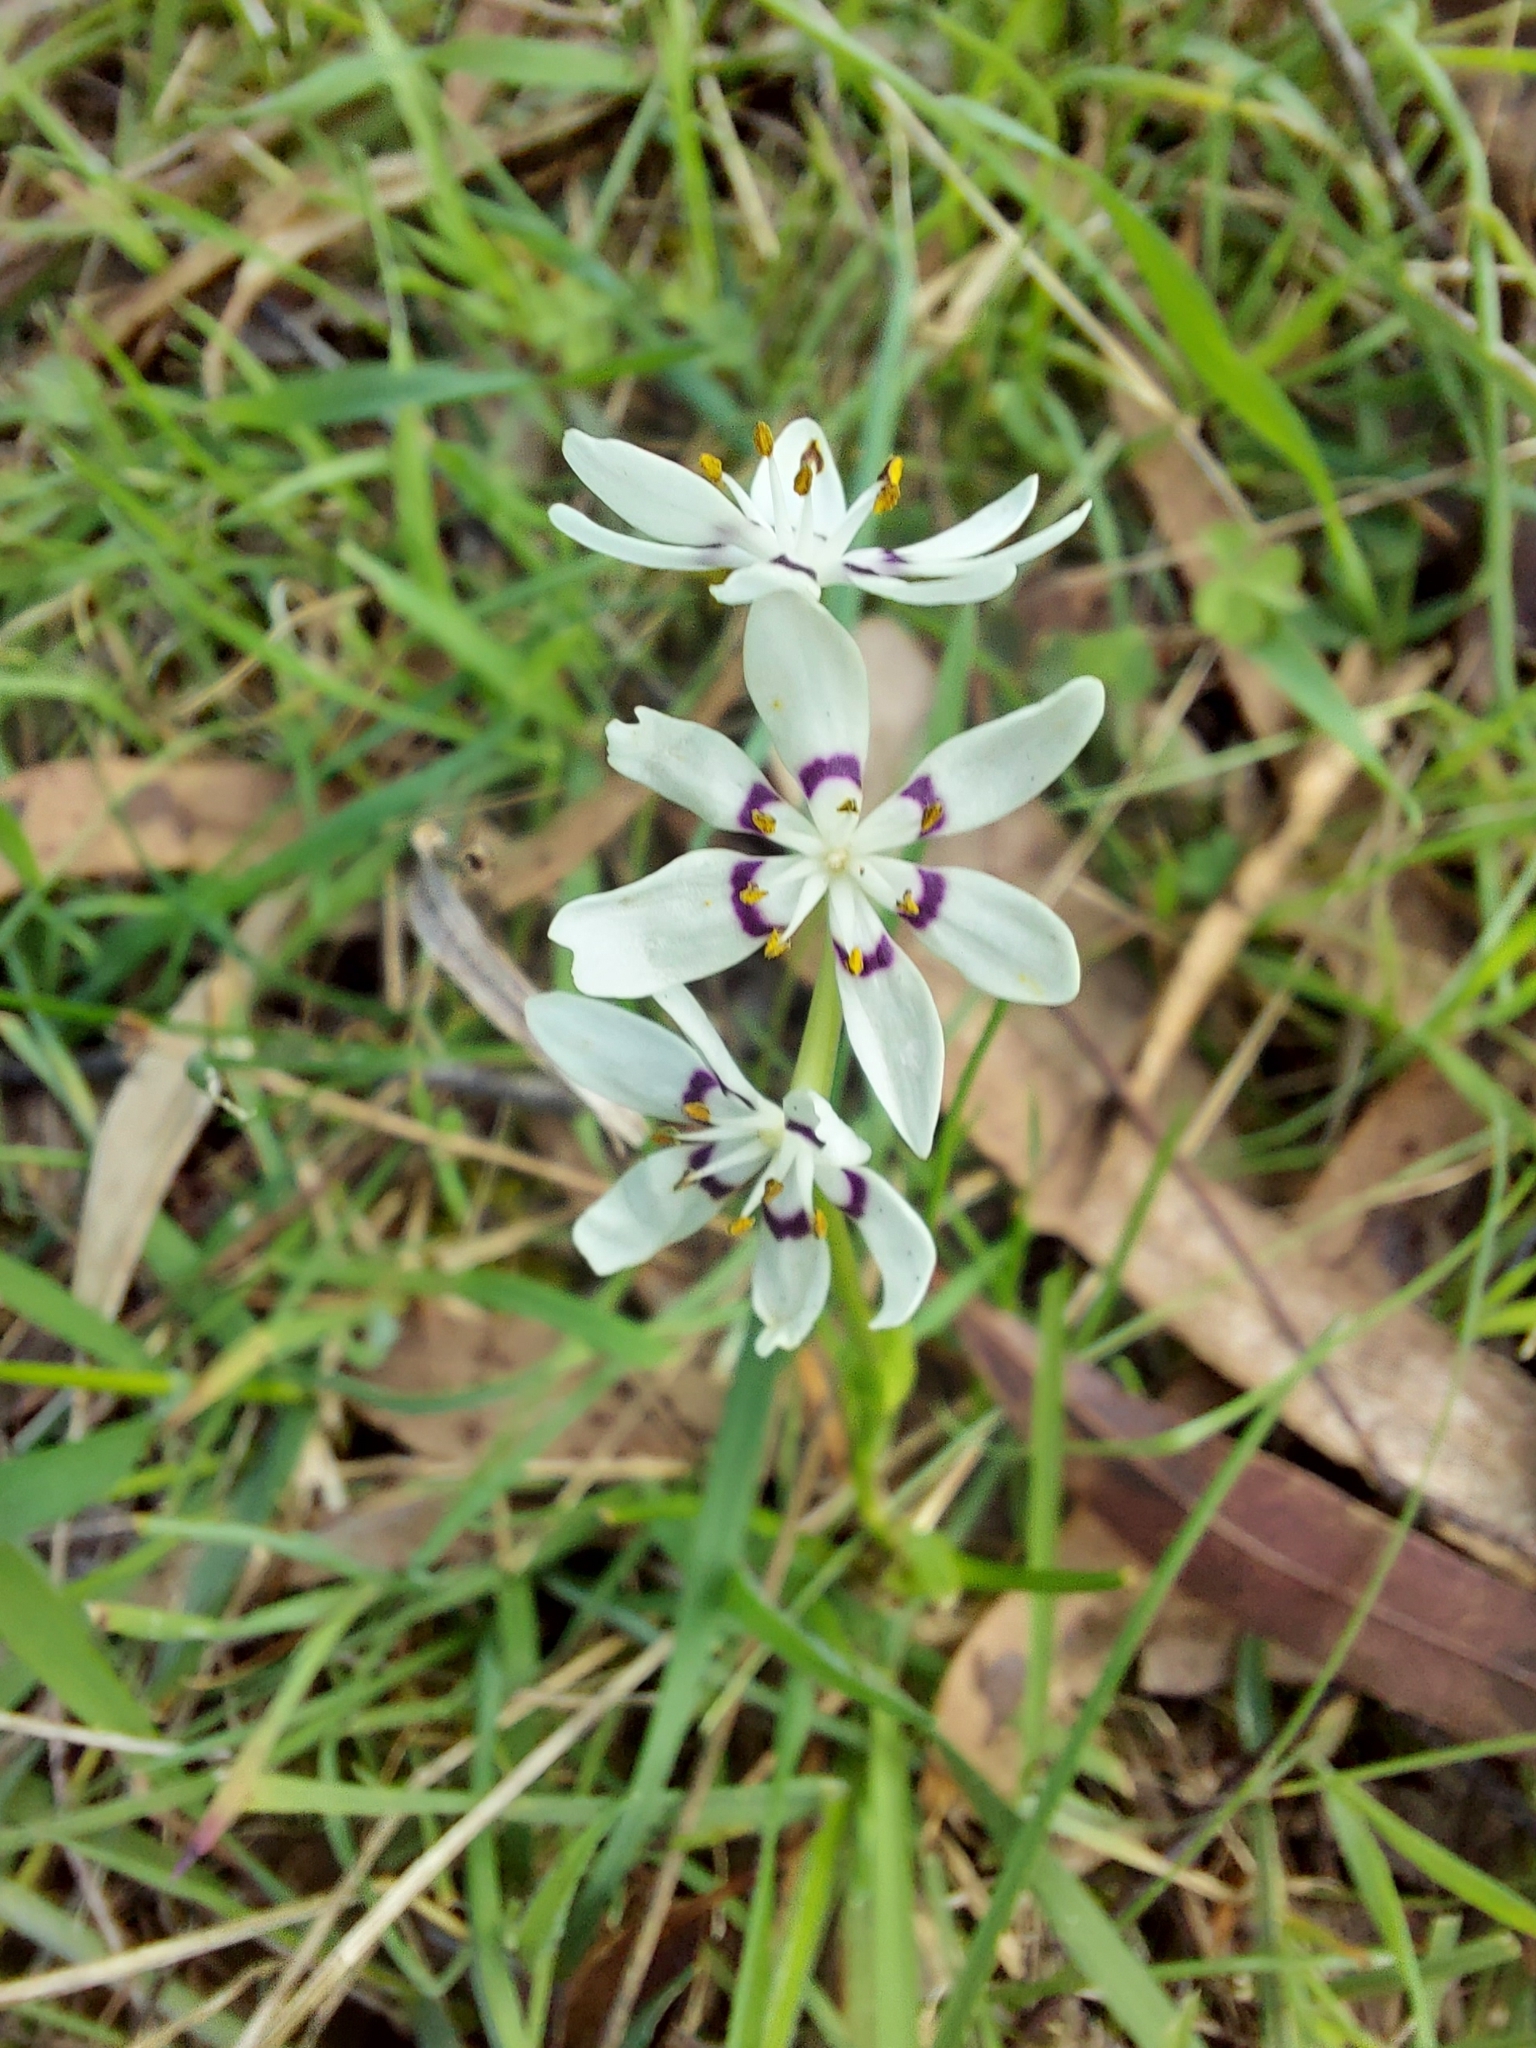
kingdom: Plantae
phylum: Tracheophyta
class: Liliopsida
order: Liliales
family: Colchicaceae
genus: Wurmbea
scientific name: Wurmbea dioica
